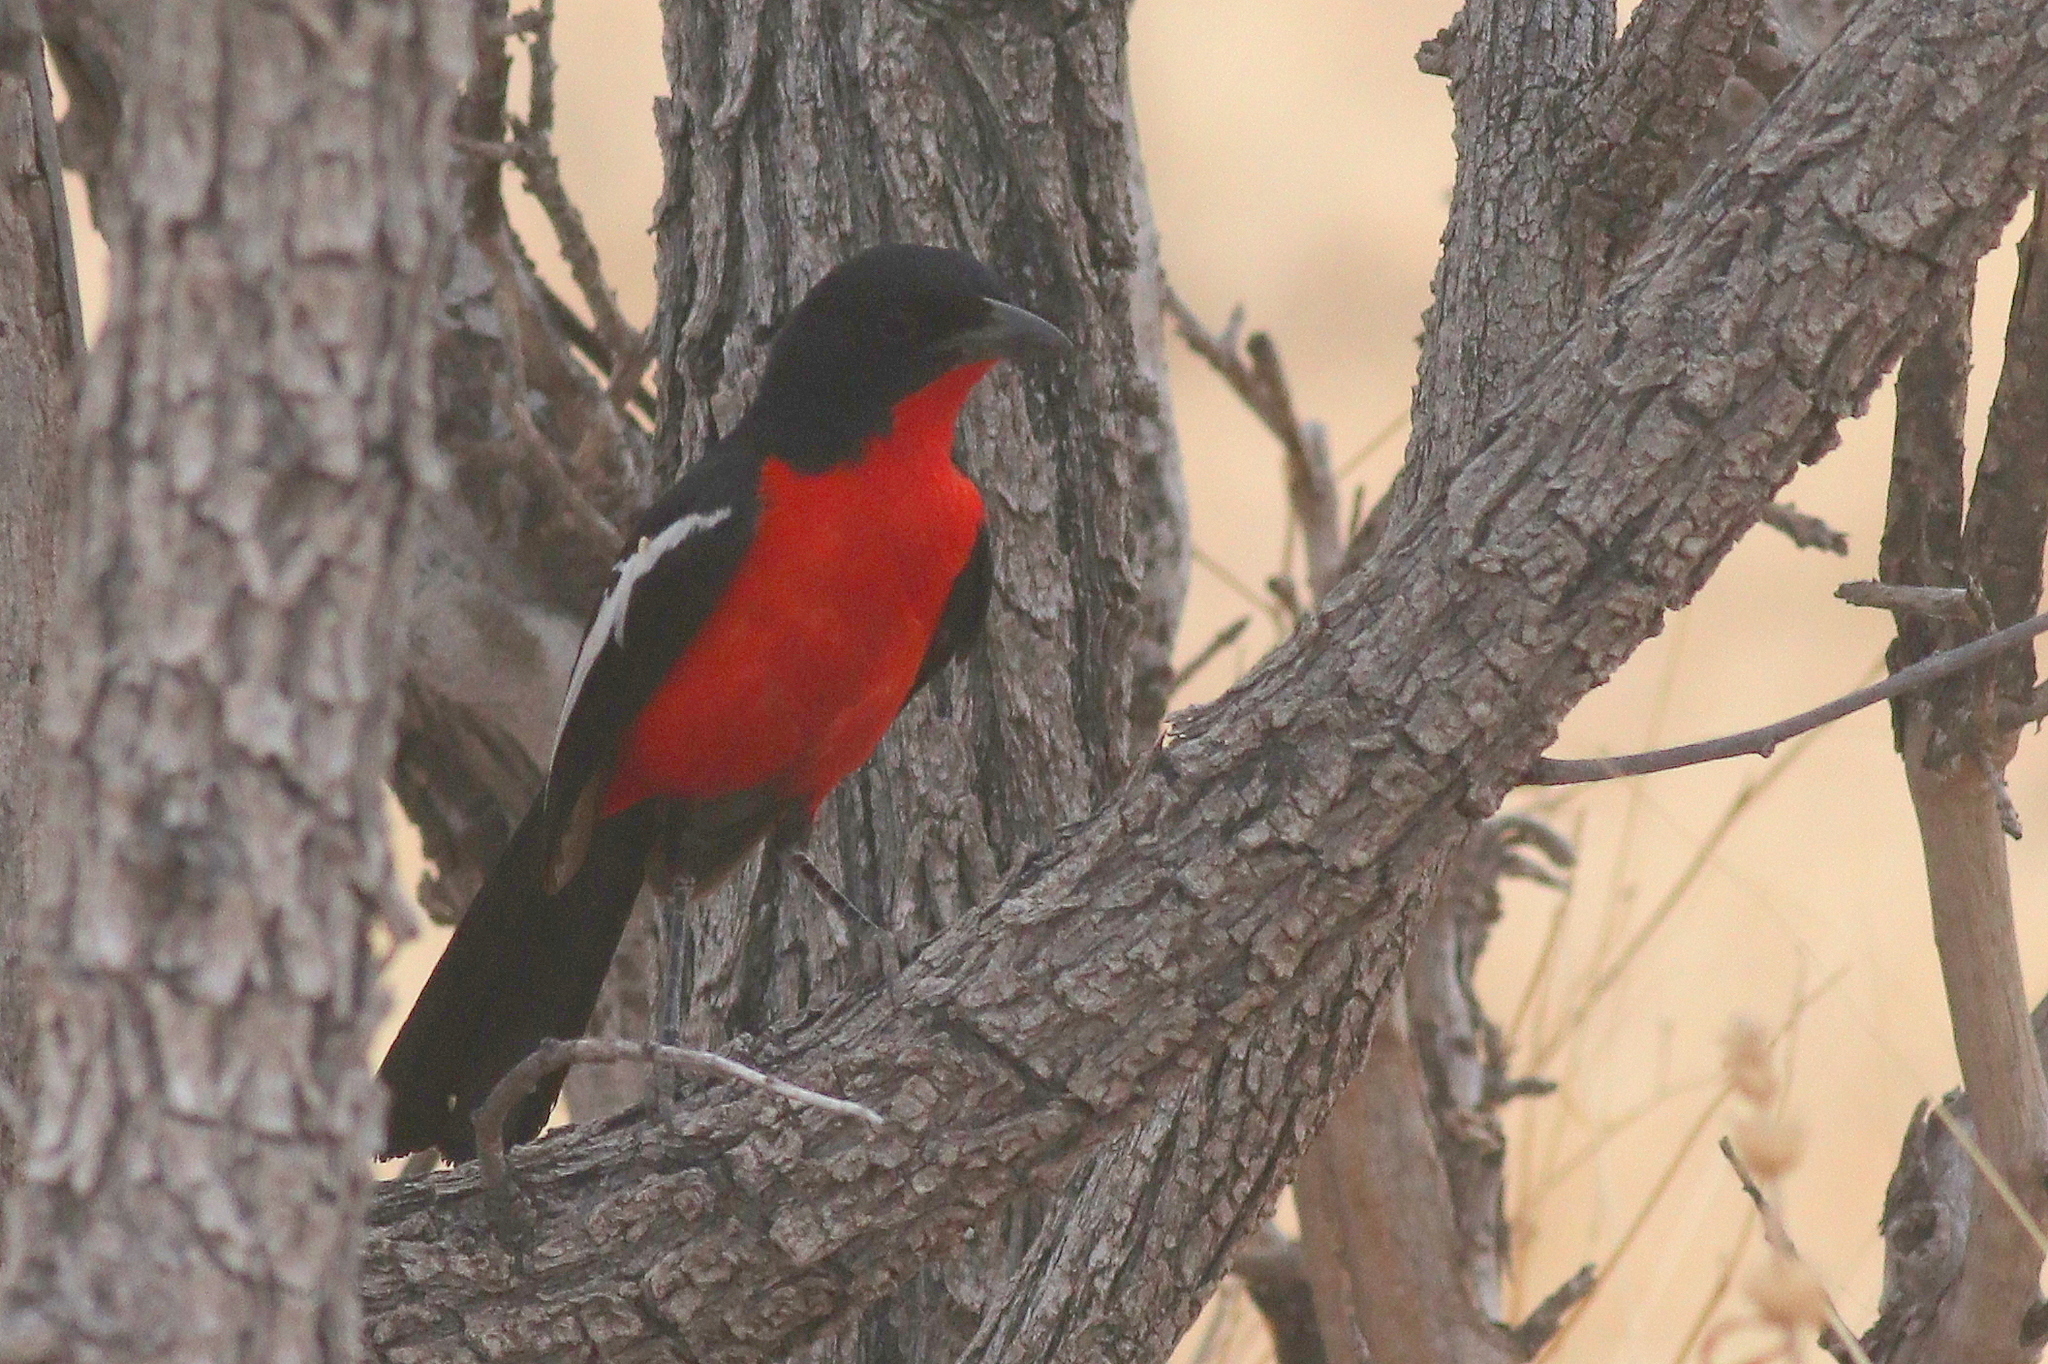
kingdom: Animalia
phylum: Chordata
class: Aves
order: Passeriformes
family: Malaconotidae
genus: Laniarius
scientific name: Laniarius atrococcineus
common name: Crimson-breasted shrike
